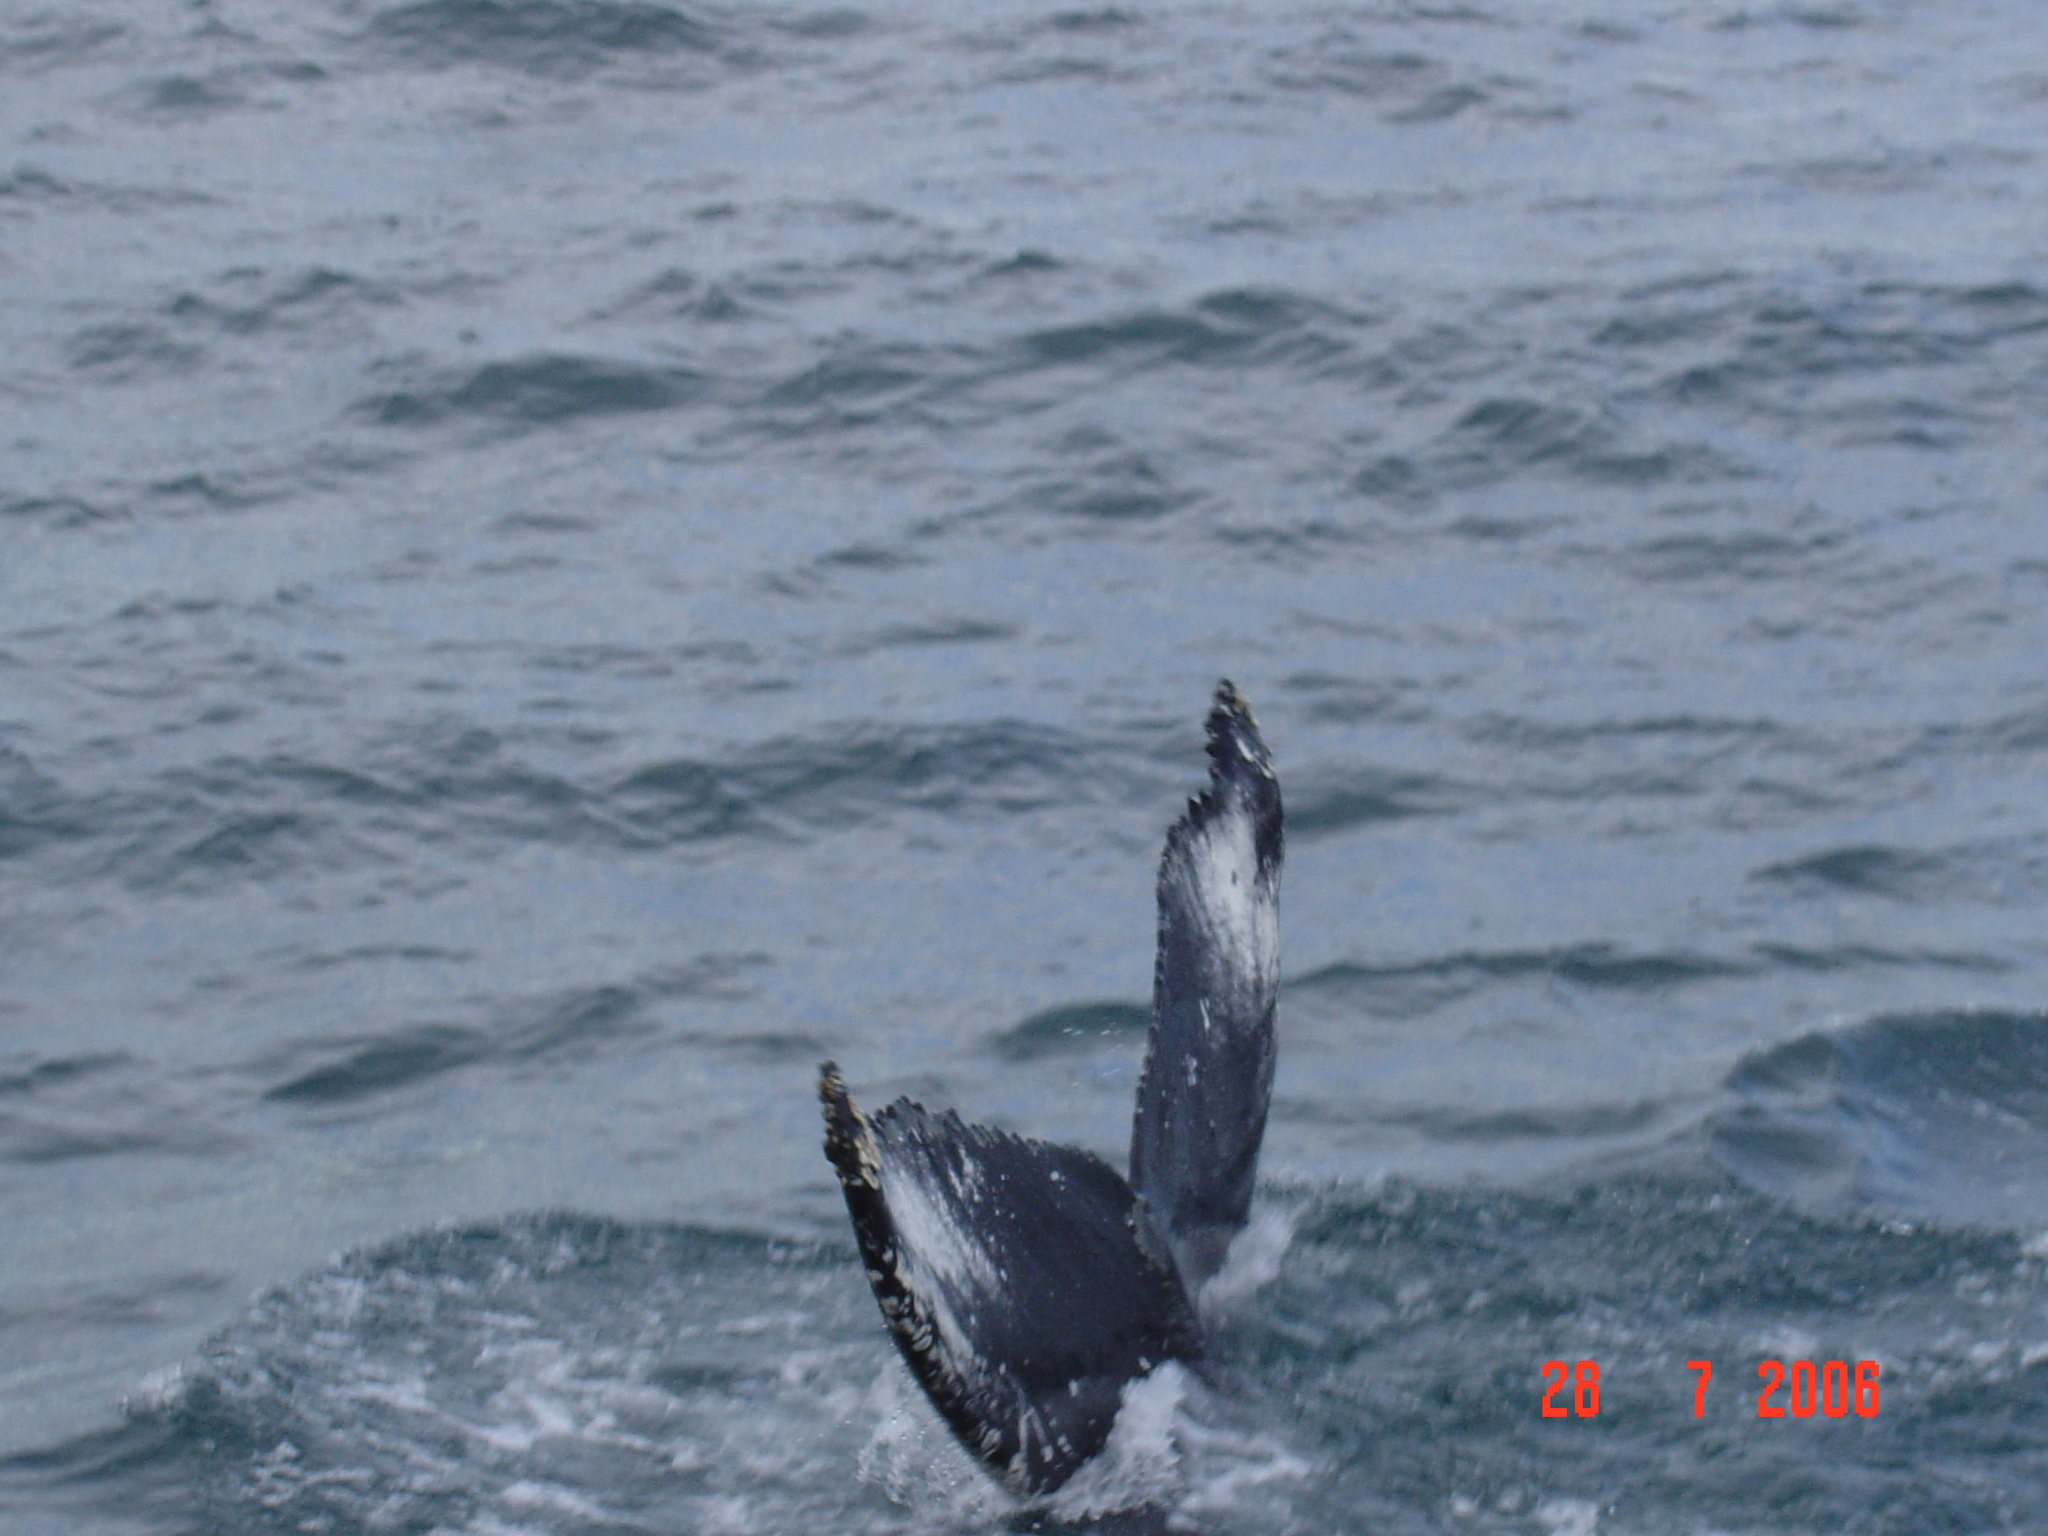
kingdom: Animalia
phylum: Chordata
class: Mammalia
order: Cetacea
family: Balaenopteridae
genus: Megaptera
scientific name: Megaptera novaeangliae
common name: Humpback whale
